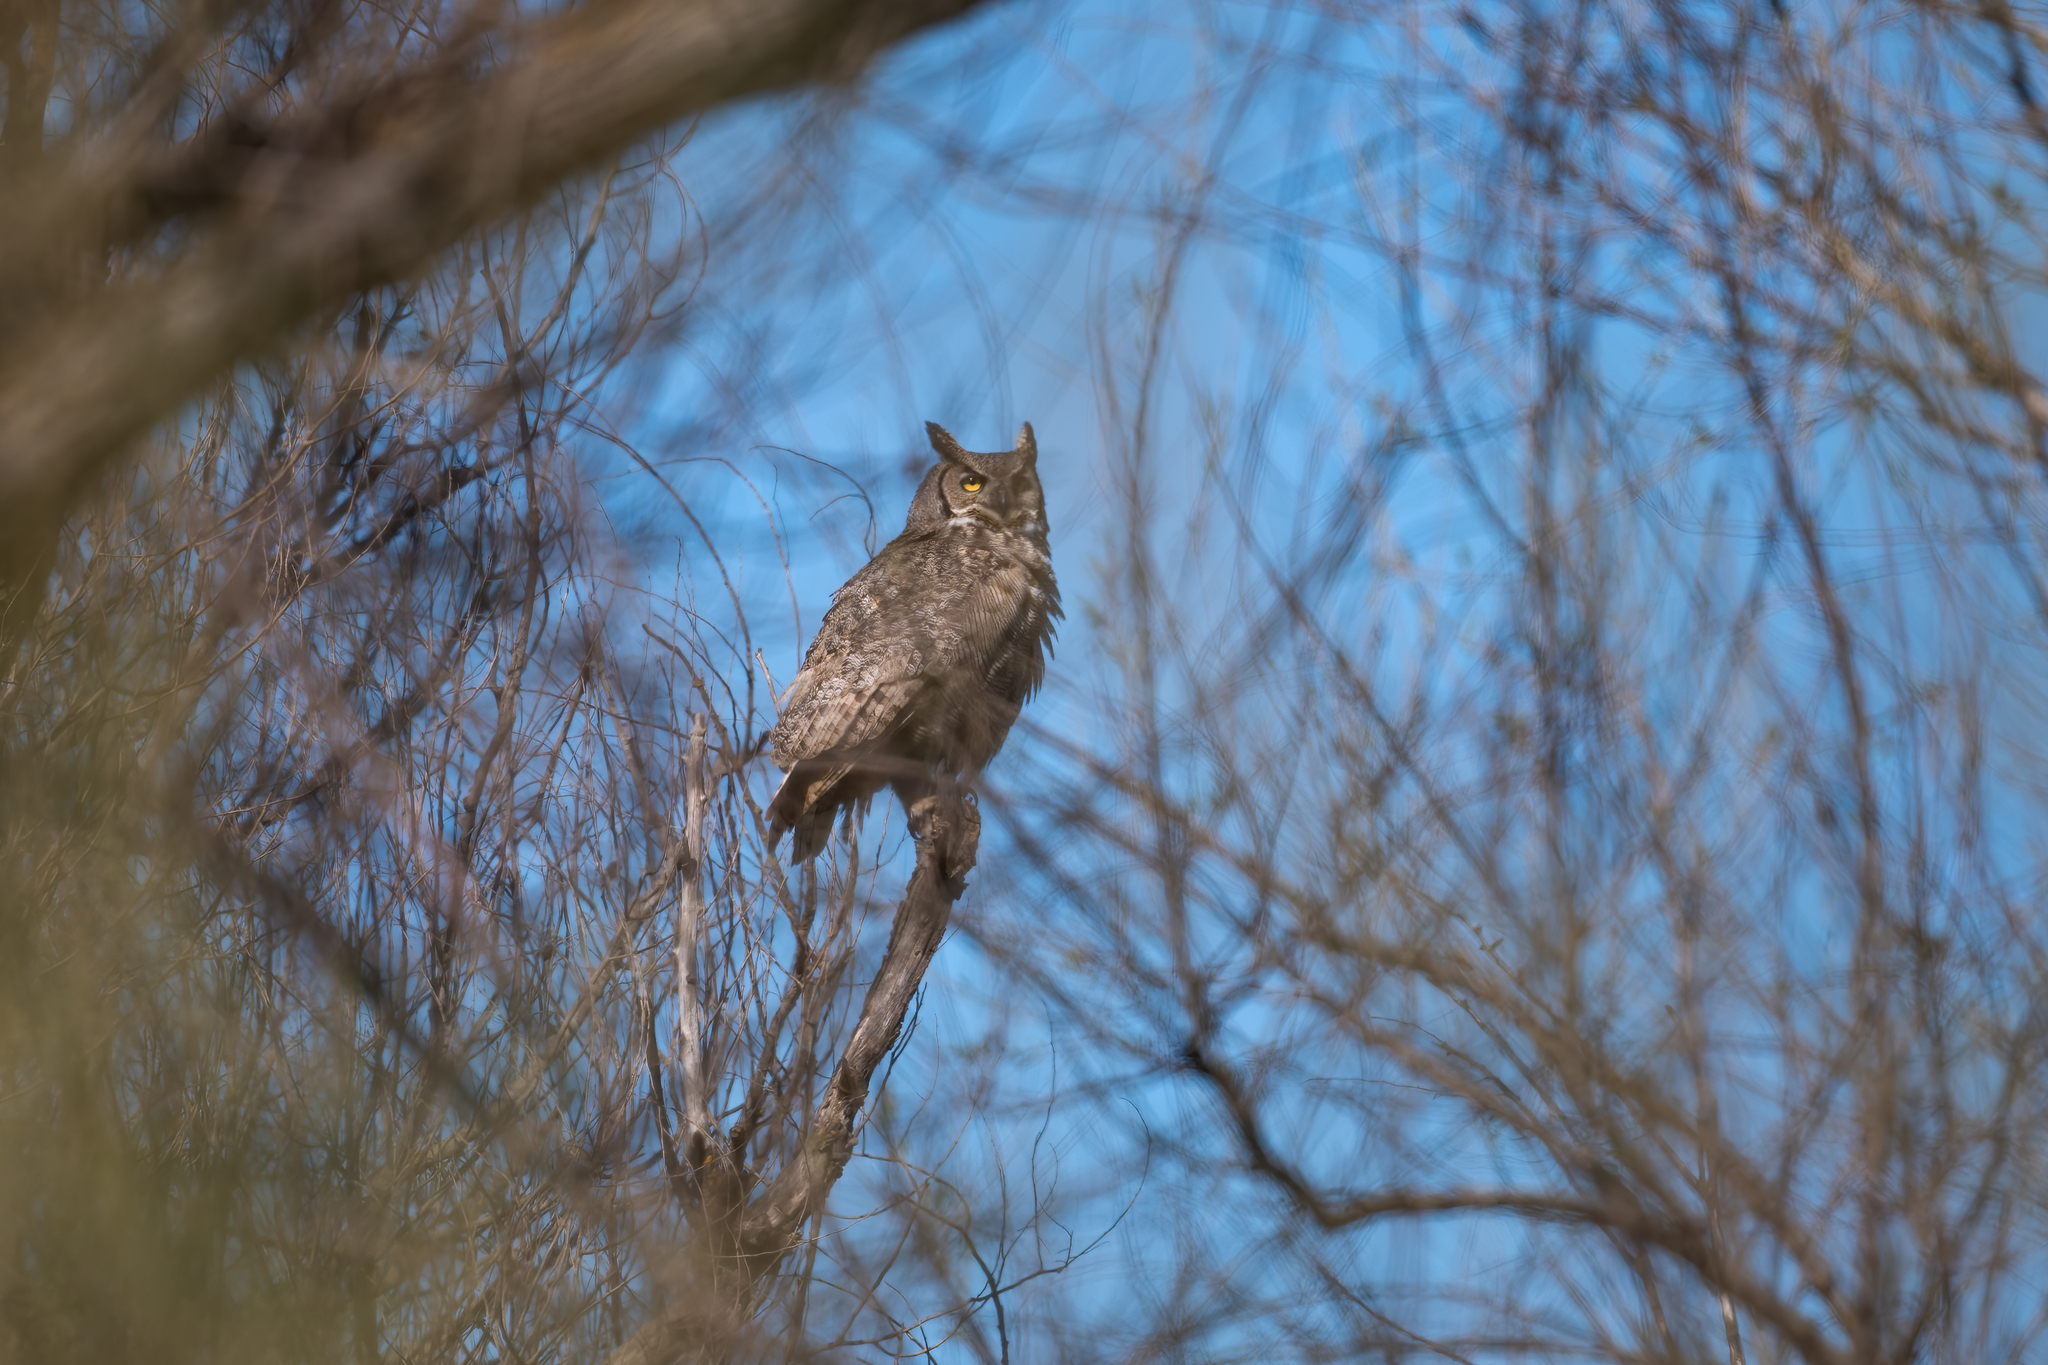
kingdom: Animalia
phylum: Chordata
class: Aves
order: Strigiformes
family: Strigidae
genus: Bubo
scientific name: Bubo virginianus
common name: Great horned owl
